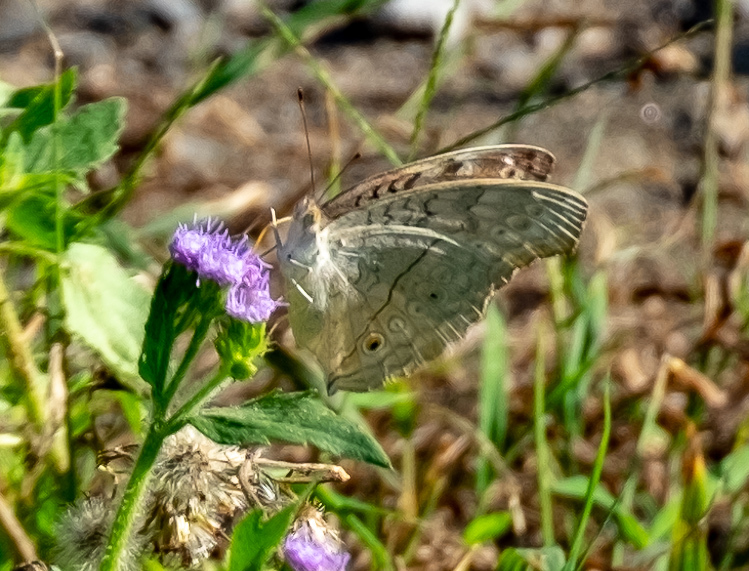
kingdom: Animalia
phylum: Arthropoda
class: Insecta
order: Lepidoptera
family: Nymphalidae
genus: Junonia
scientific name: Junonia atlites
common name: Grey pansy
